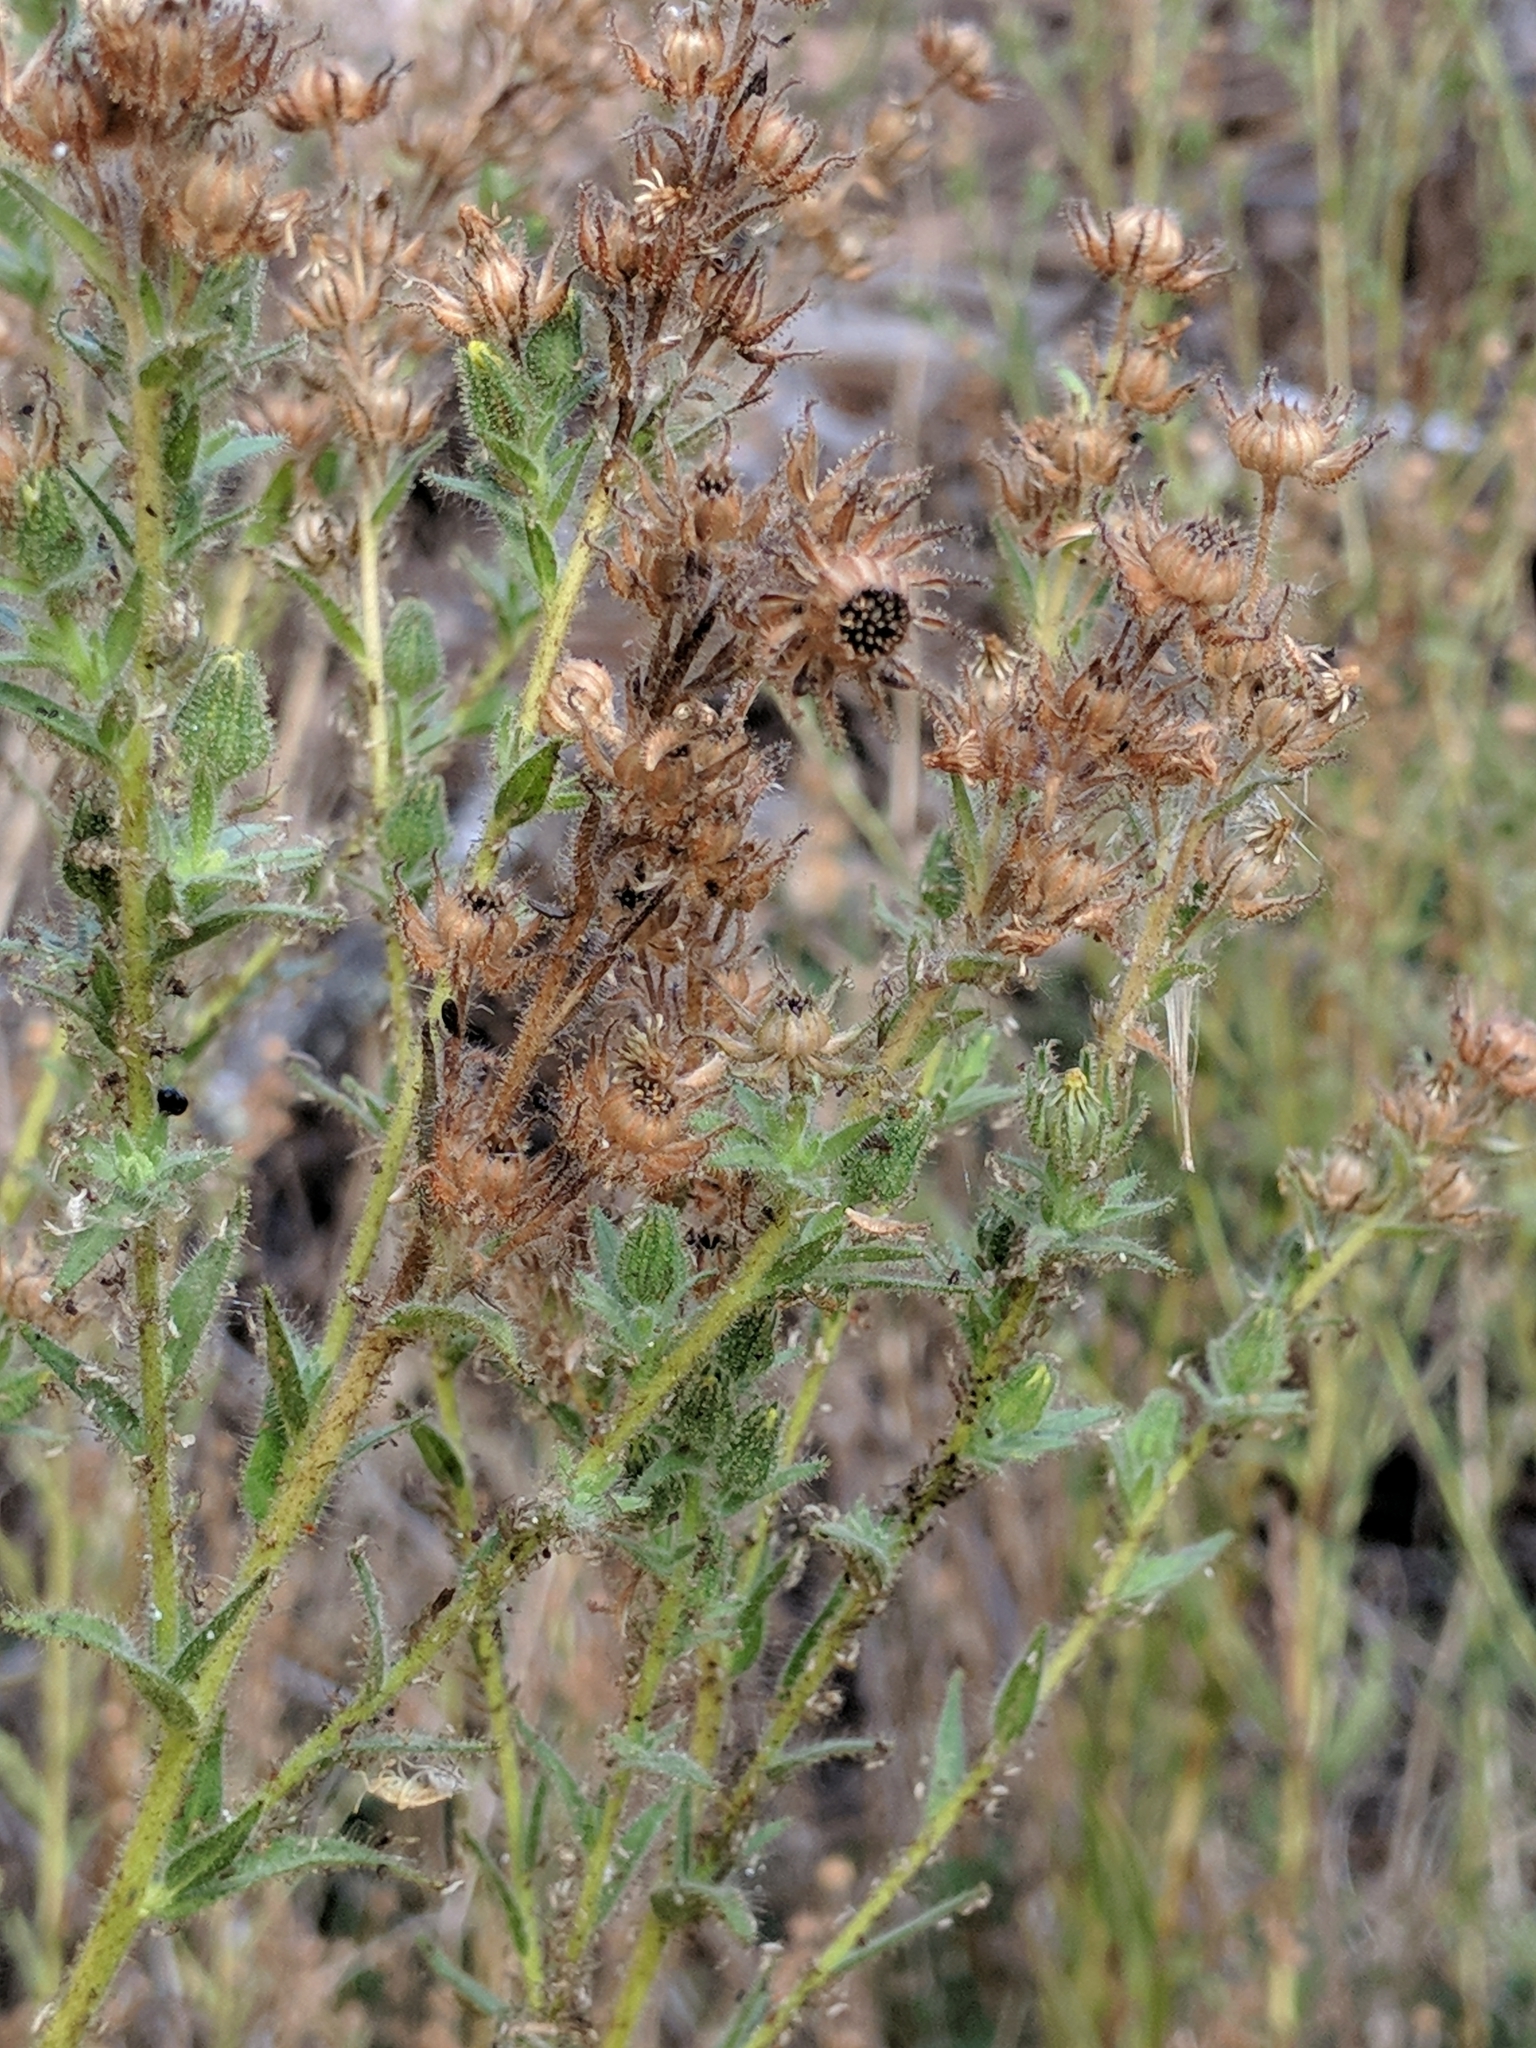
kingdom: Plantae
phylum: Tracheophyta
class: Magnoliopsida
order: Asterales
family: Asteraceae
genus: Madia
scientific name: Madia sativa
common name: Coast tarweed
